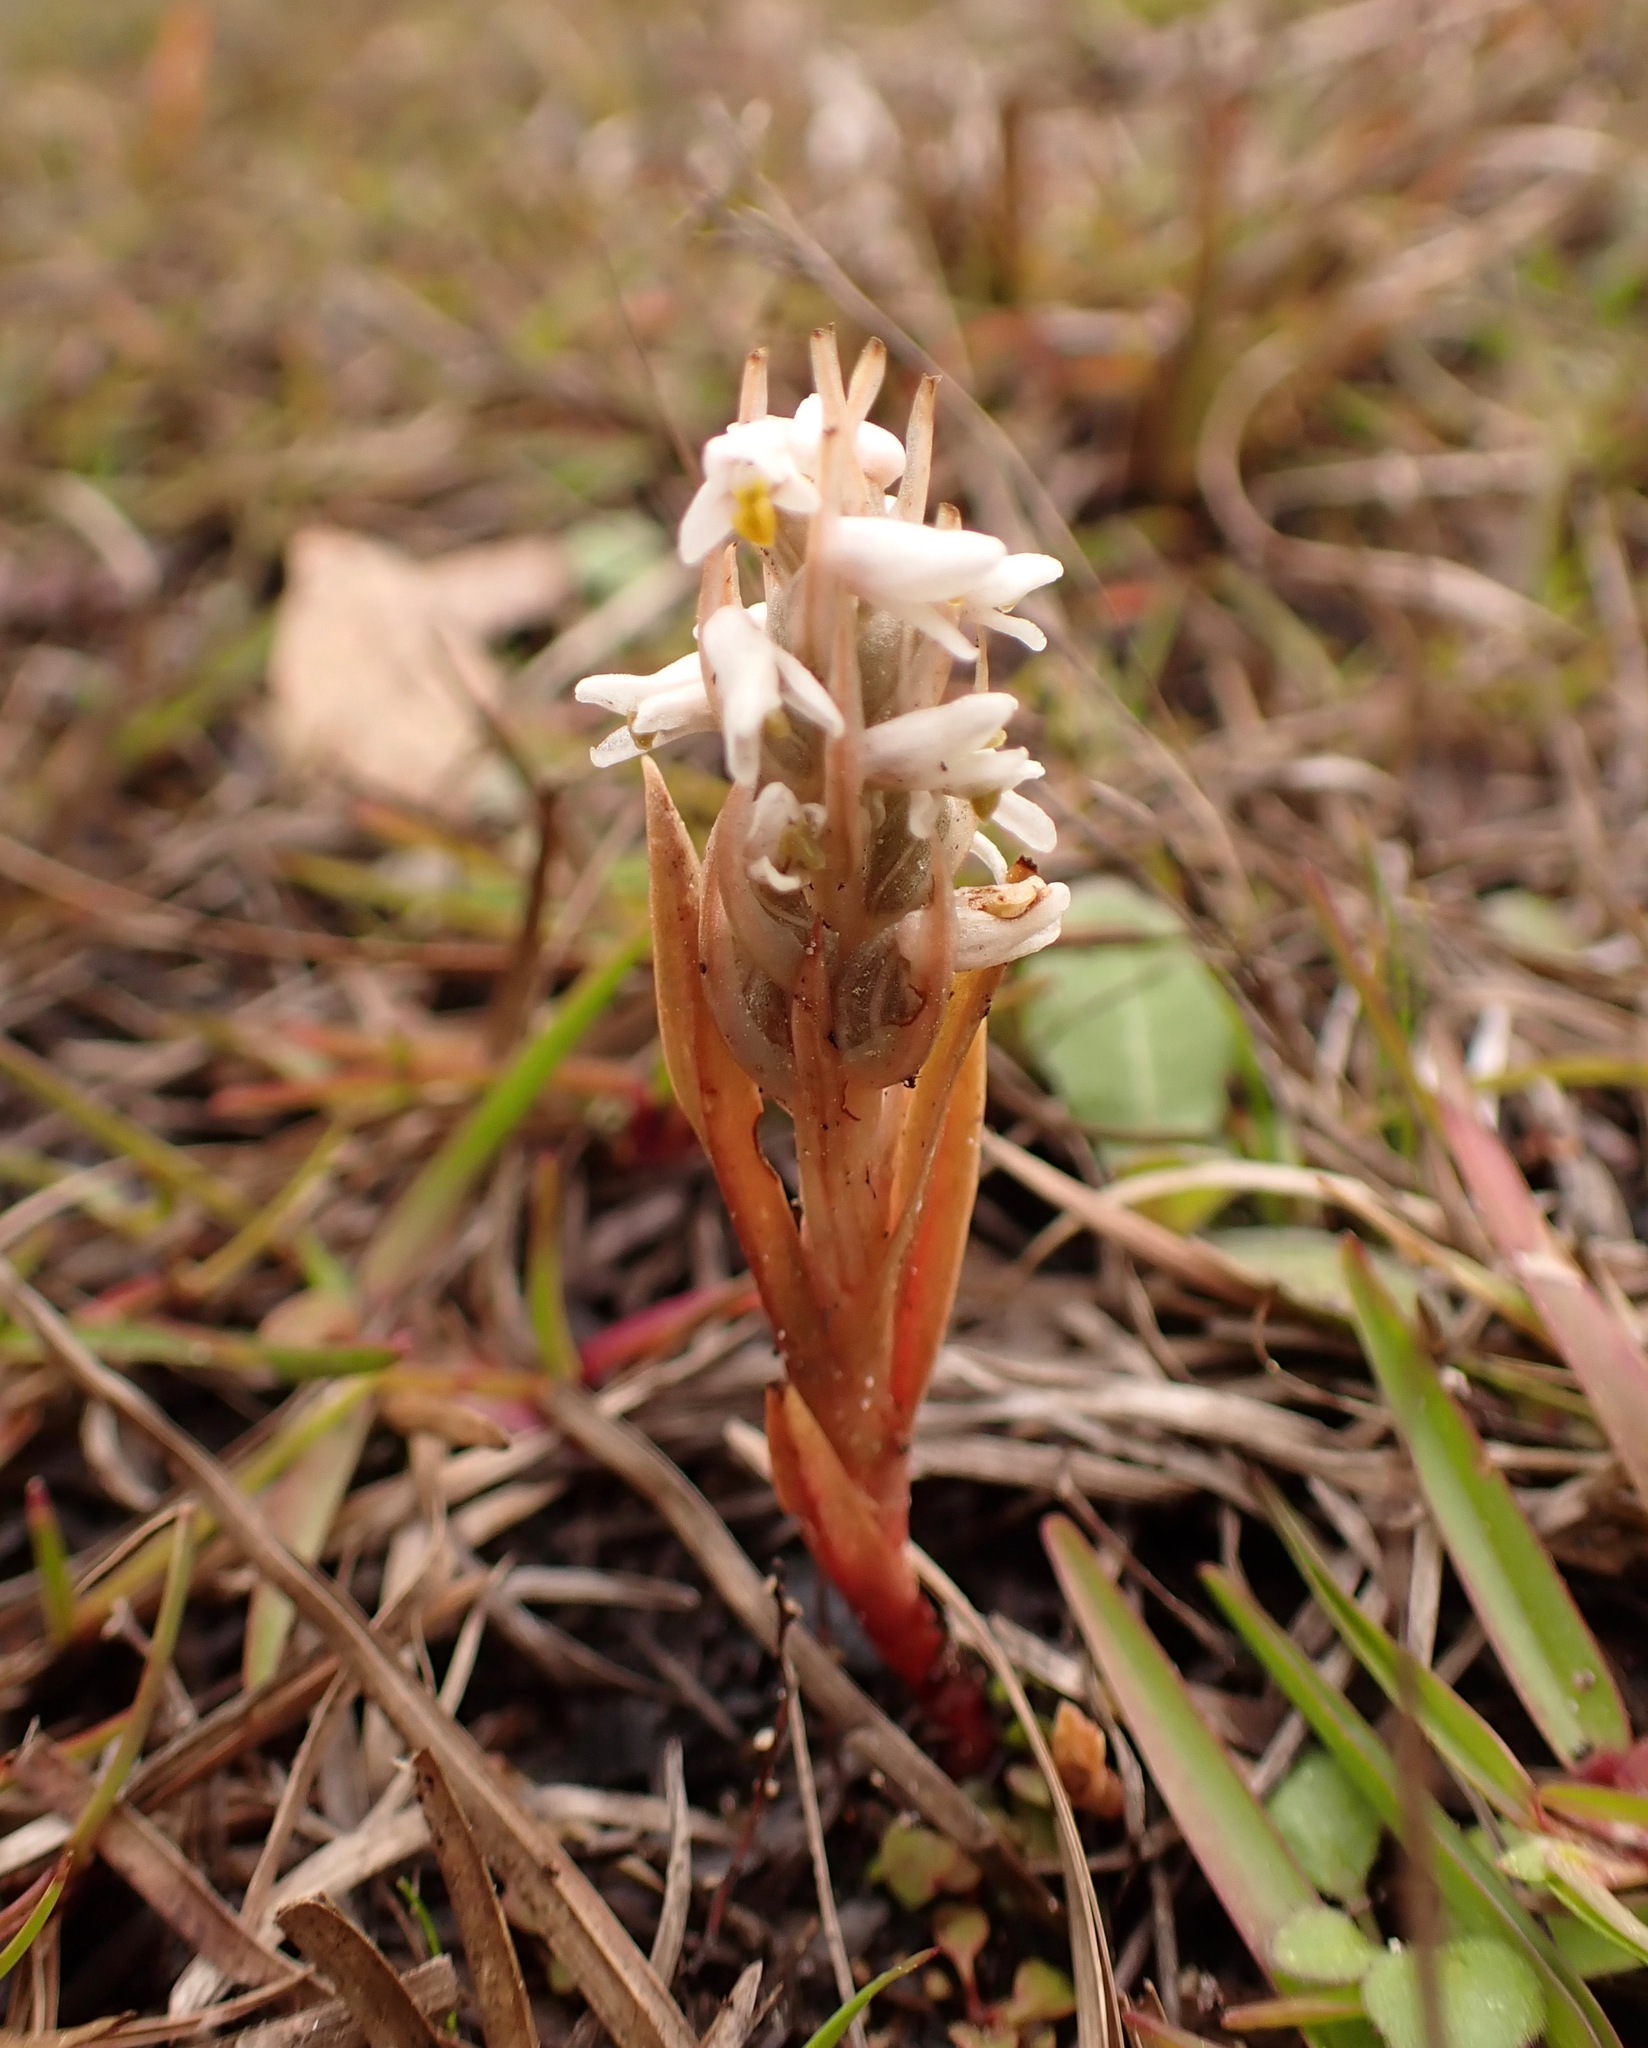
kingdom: Plantae
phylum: Tracheophyta
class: Liliopsida
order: Asparagales
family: Orchidaceae
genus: Zeuxine
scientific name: Zeuxine strateumatica
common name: Soldier's orchid
